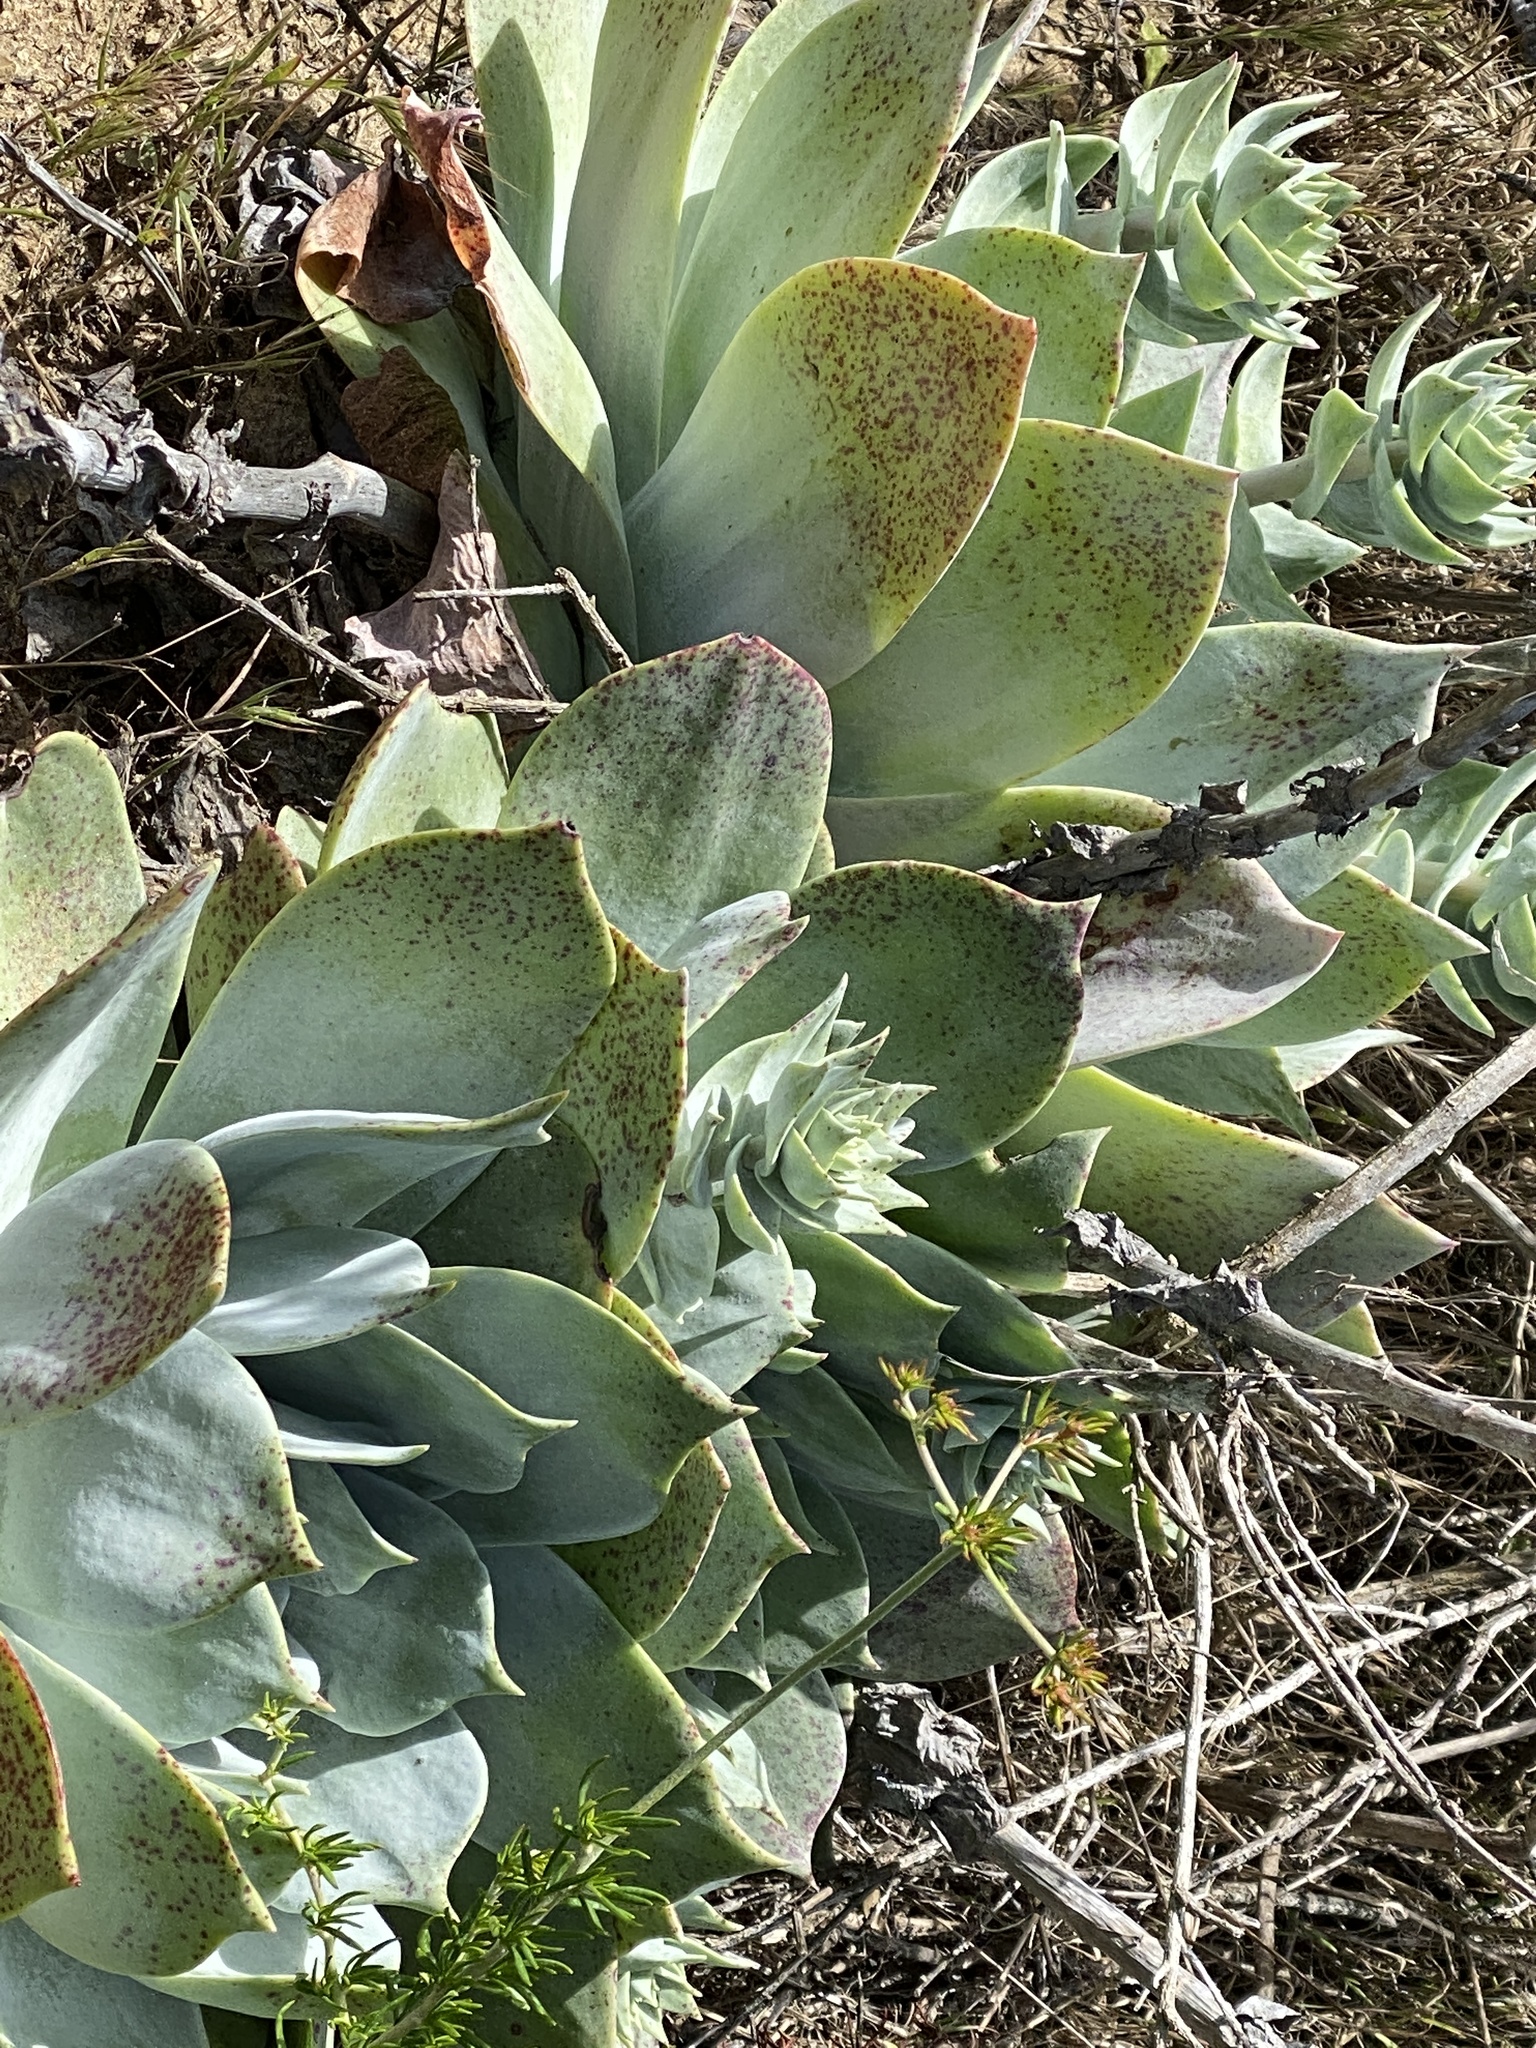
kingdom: Plantae
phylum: Tracheophyta
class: Magnoliopsida
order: Saxifragales
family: Crassulaceae
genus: Dudleya
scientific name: Dudleya pulverulenta
